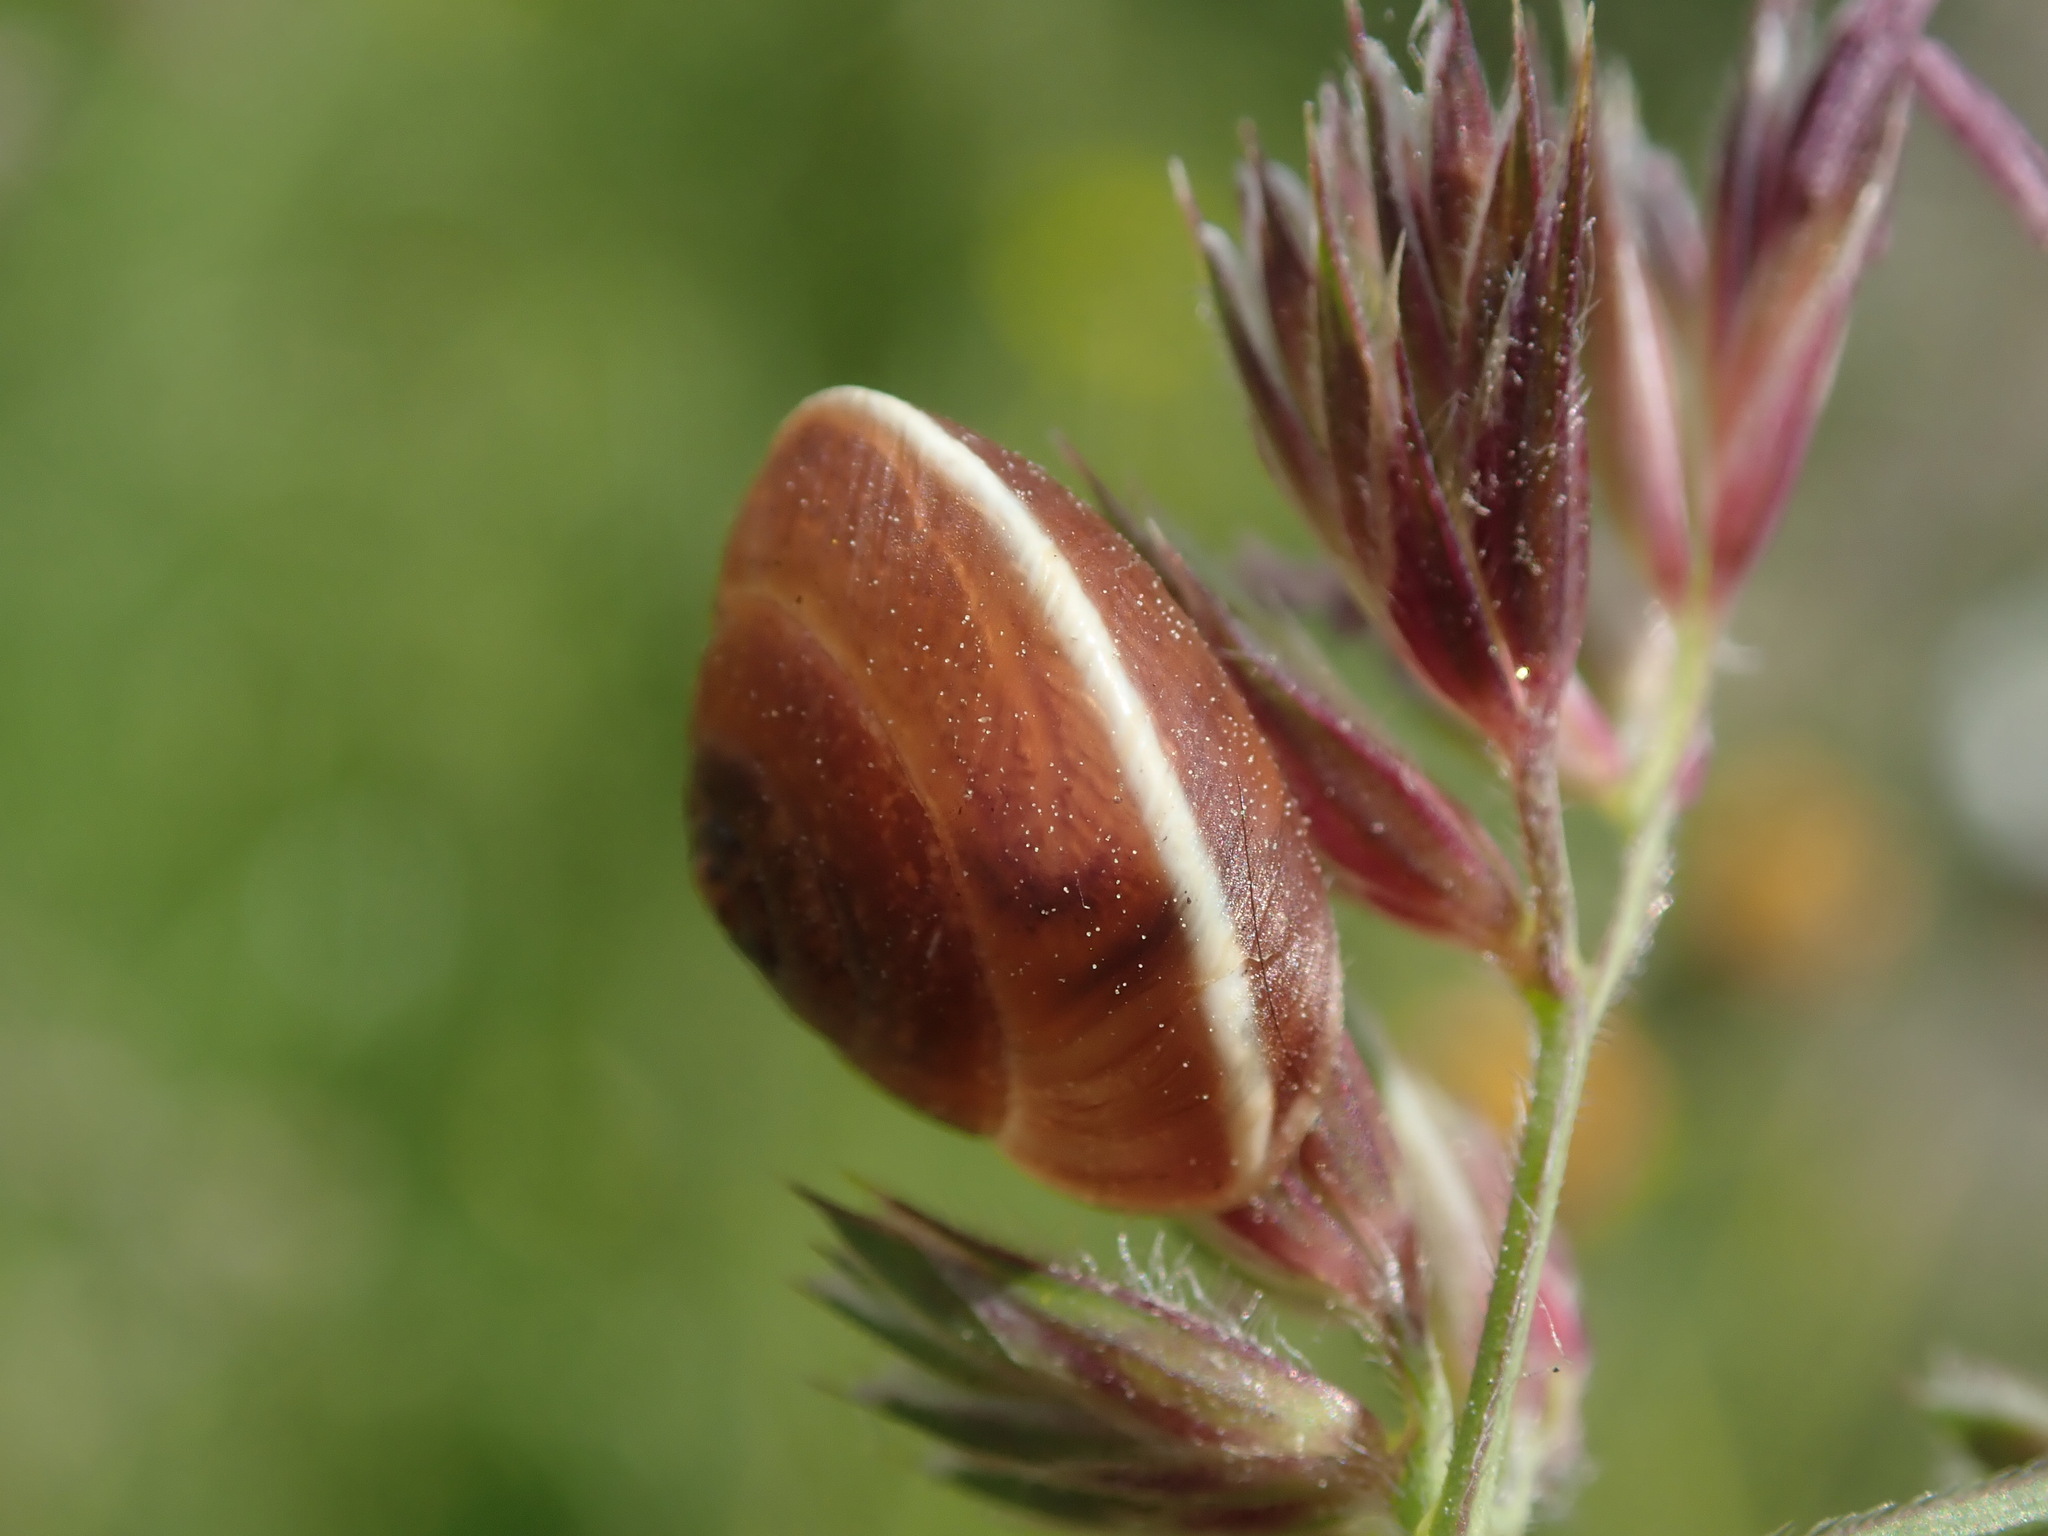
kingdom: Animalia
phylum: Mollusca
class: Gastropoda
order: Stylommatophora
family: Hygromiidae
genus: Hygromia
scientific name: Hygromia cinctella
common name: Girdled snail
